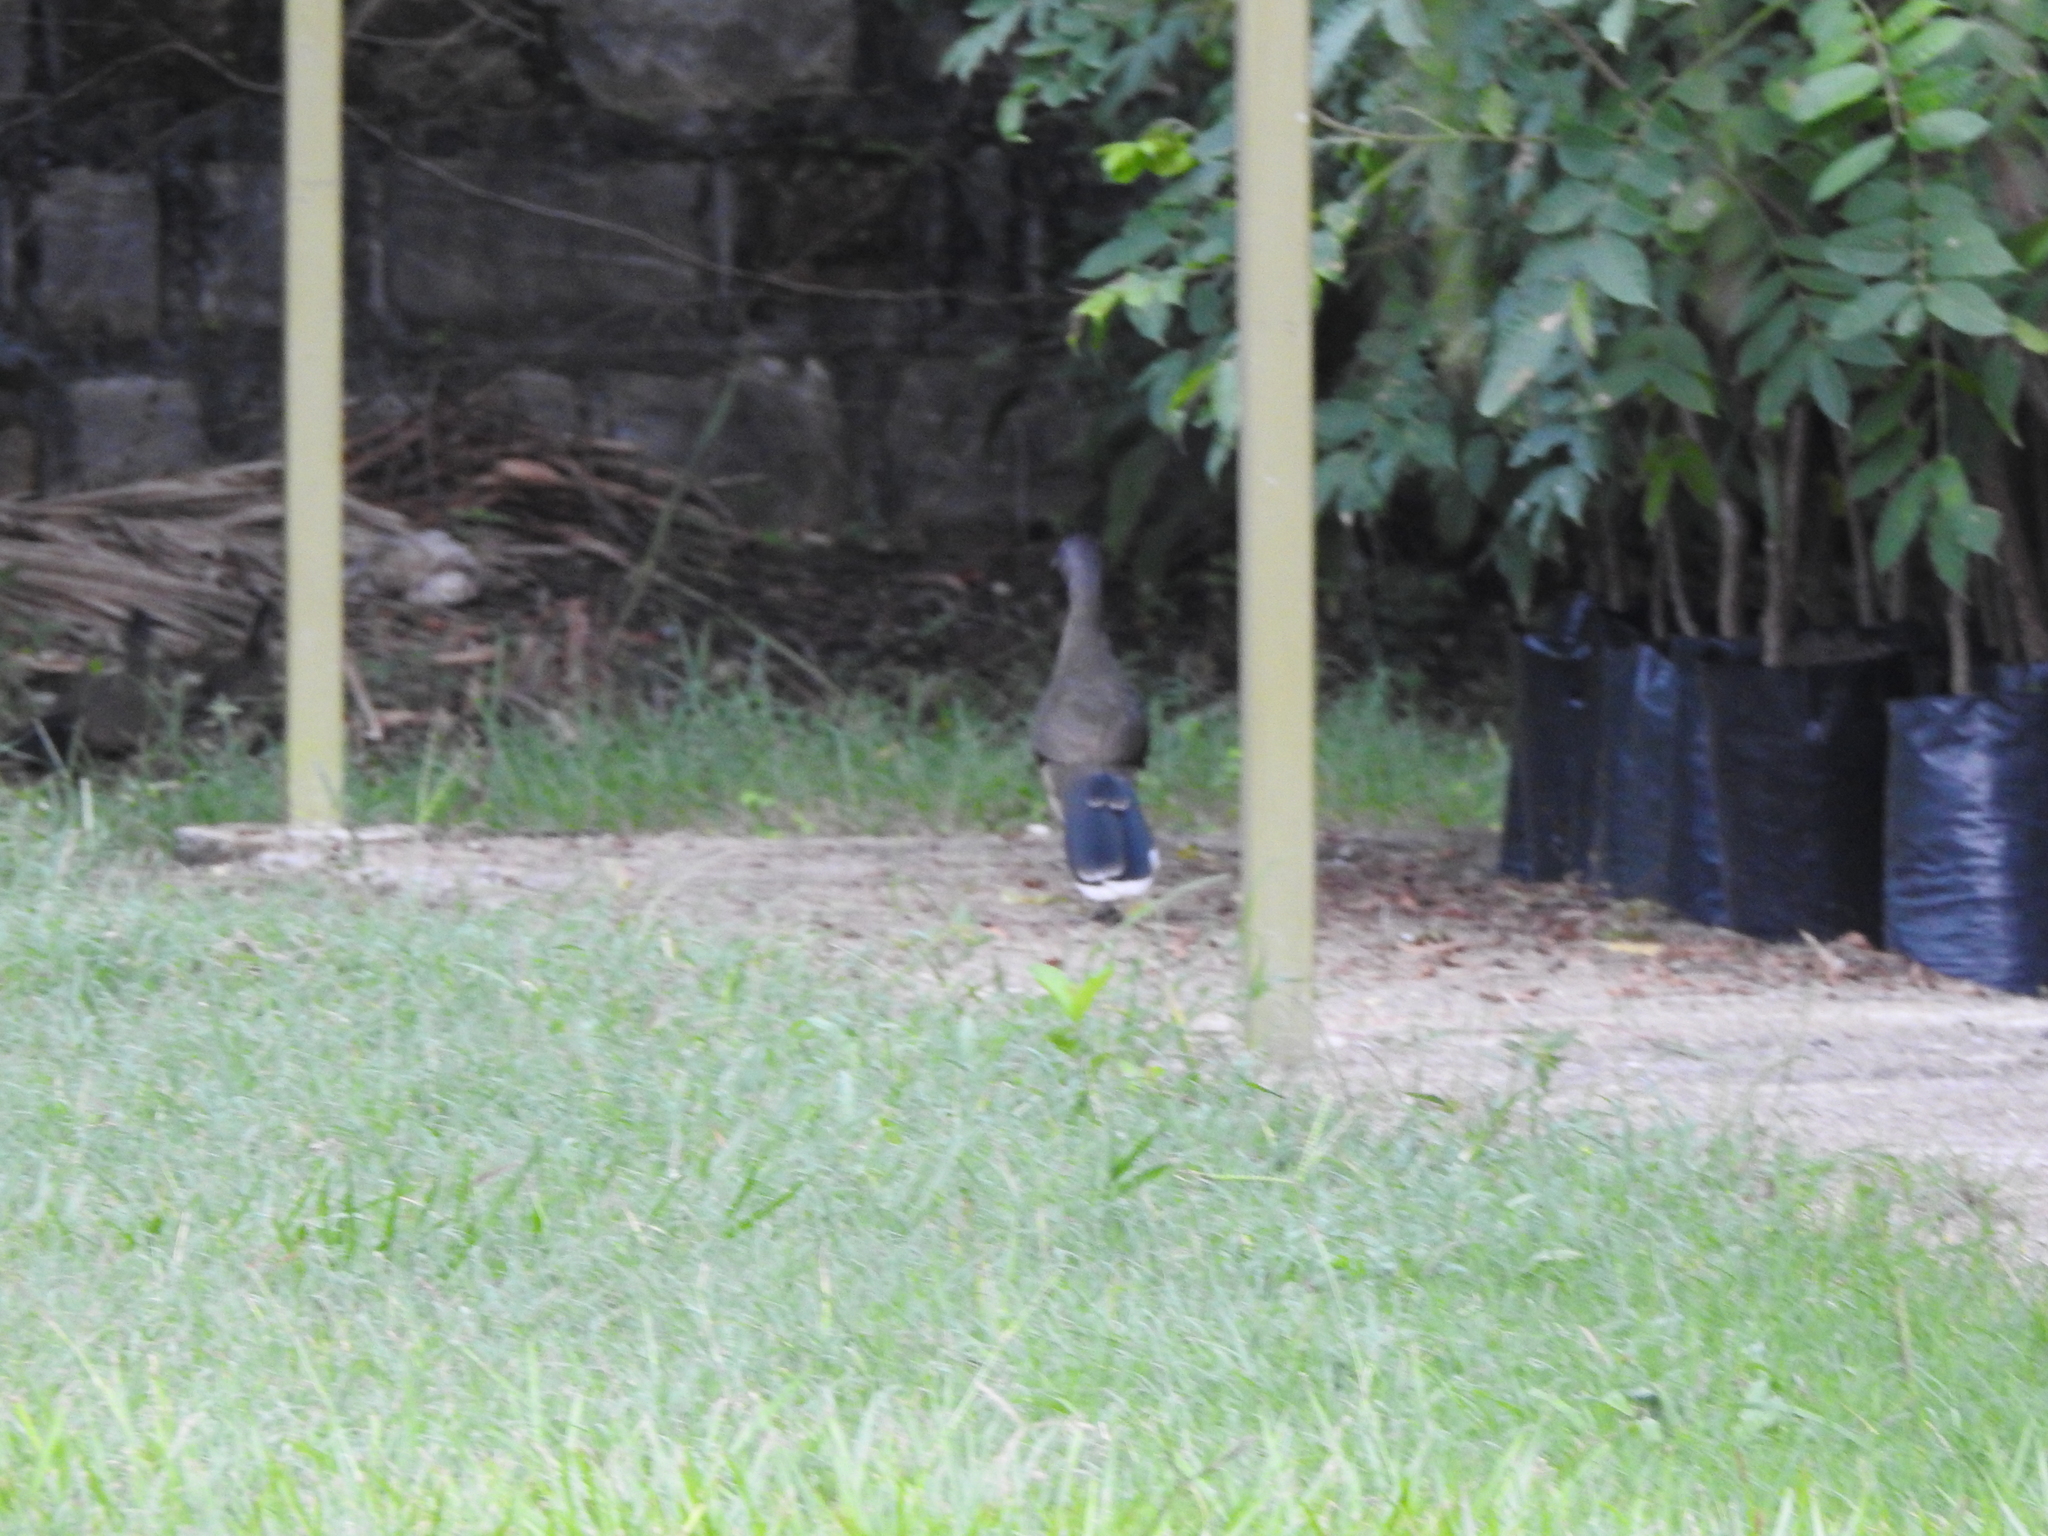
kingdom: Animalia
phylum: Chordata
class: Aves
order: Galliformes
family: Cracidae
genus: Ortalis
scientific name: Ortalis vetula
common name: Plain chachalaca
